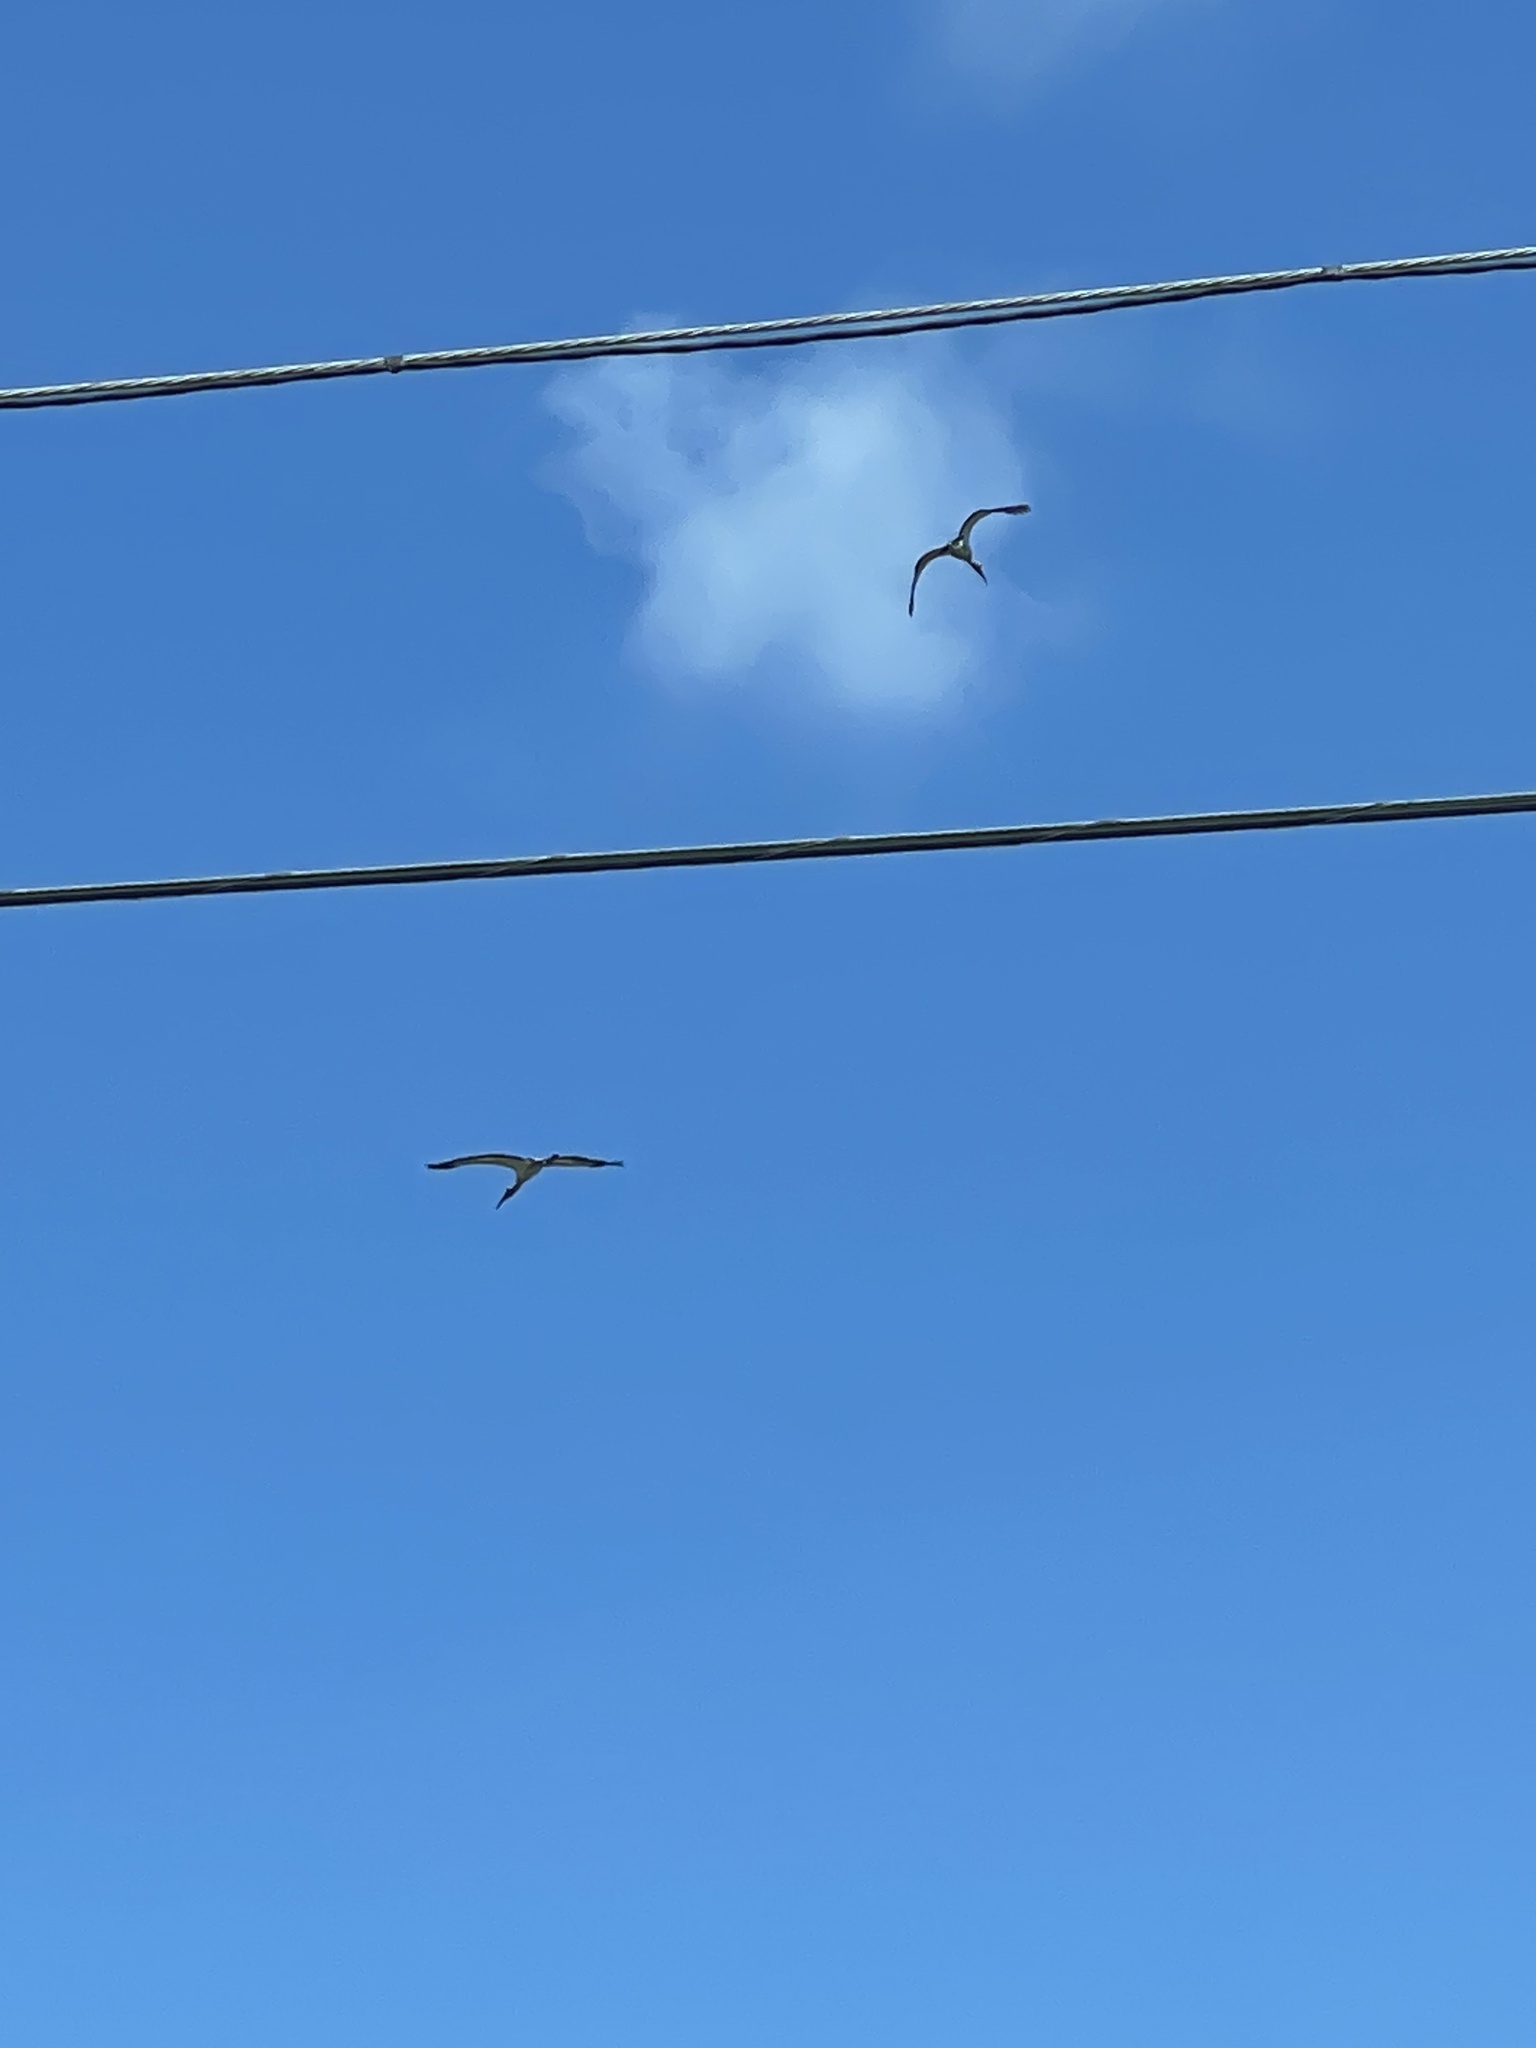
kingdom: Animalia
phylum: Chordata
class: Aves
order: Ciconiiformes
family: Ciconiidae
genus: Mycteria
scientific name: Mycteria americana
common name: Wood stork
